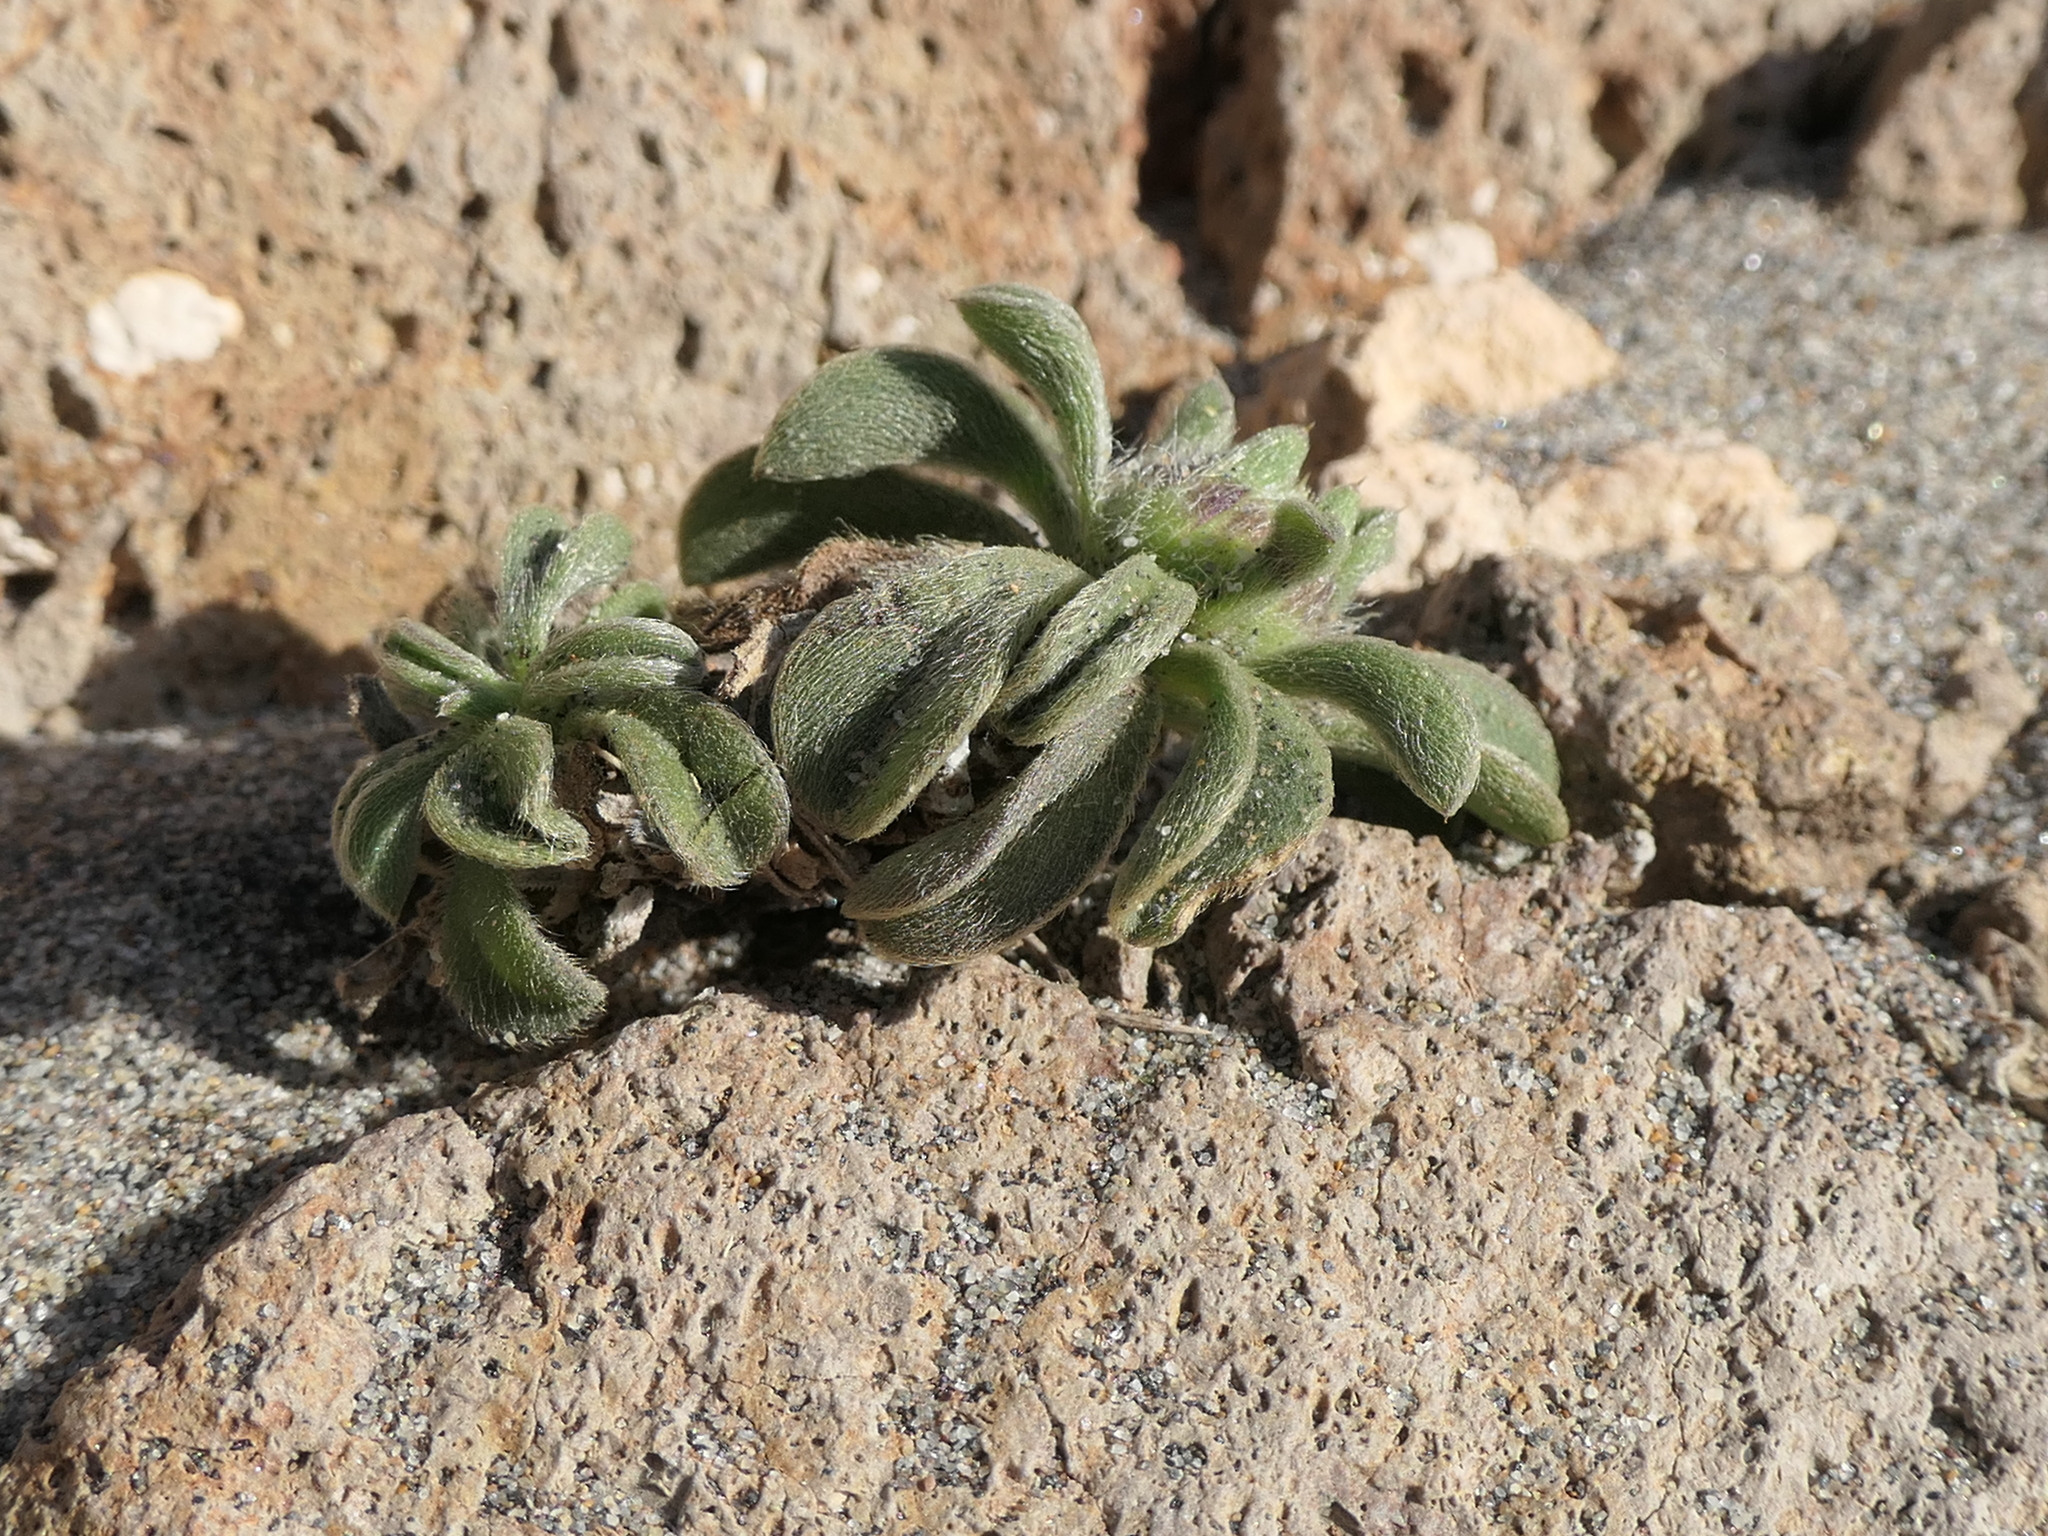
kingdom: Plantae
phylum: Tracheophyta
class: Magnoliopsida
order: Asterales
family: Asteraceae
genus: Pallenis
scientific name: Pallenis maritima
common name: Golden coin daisy
